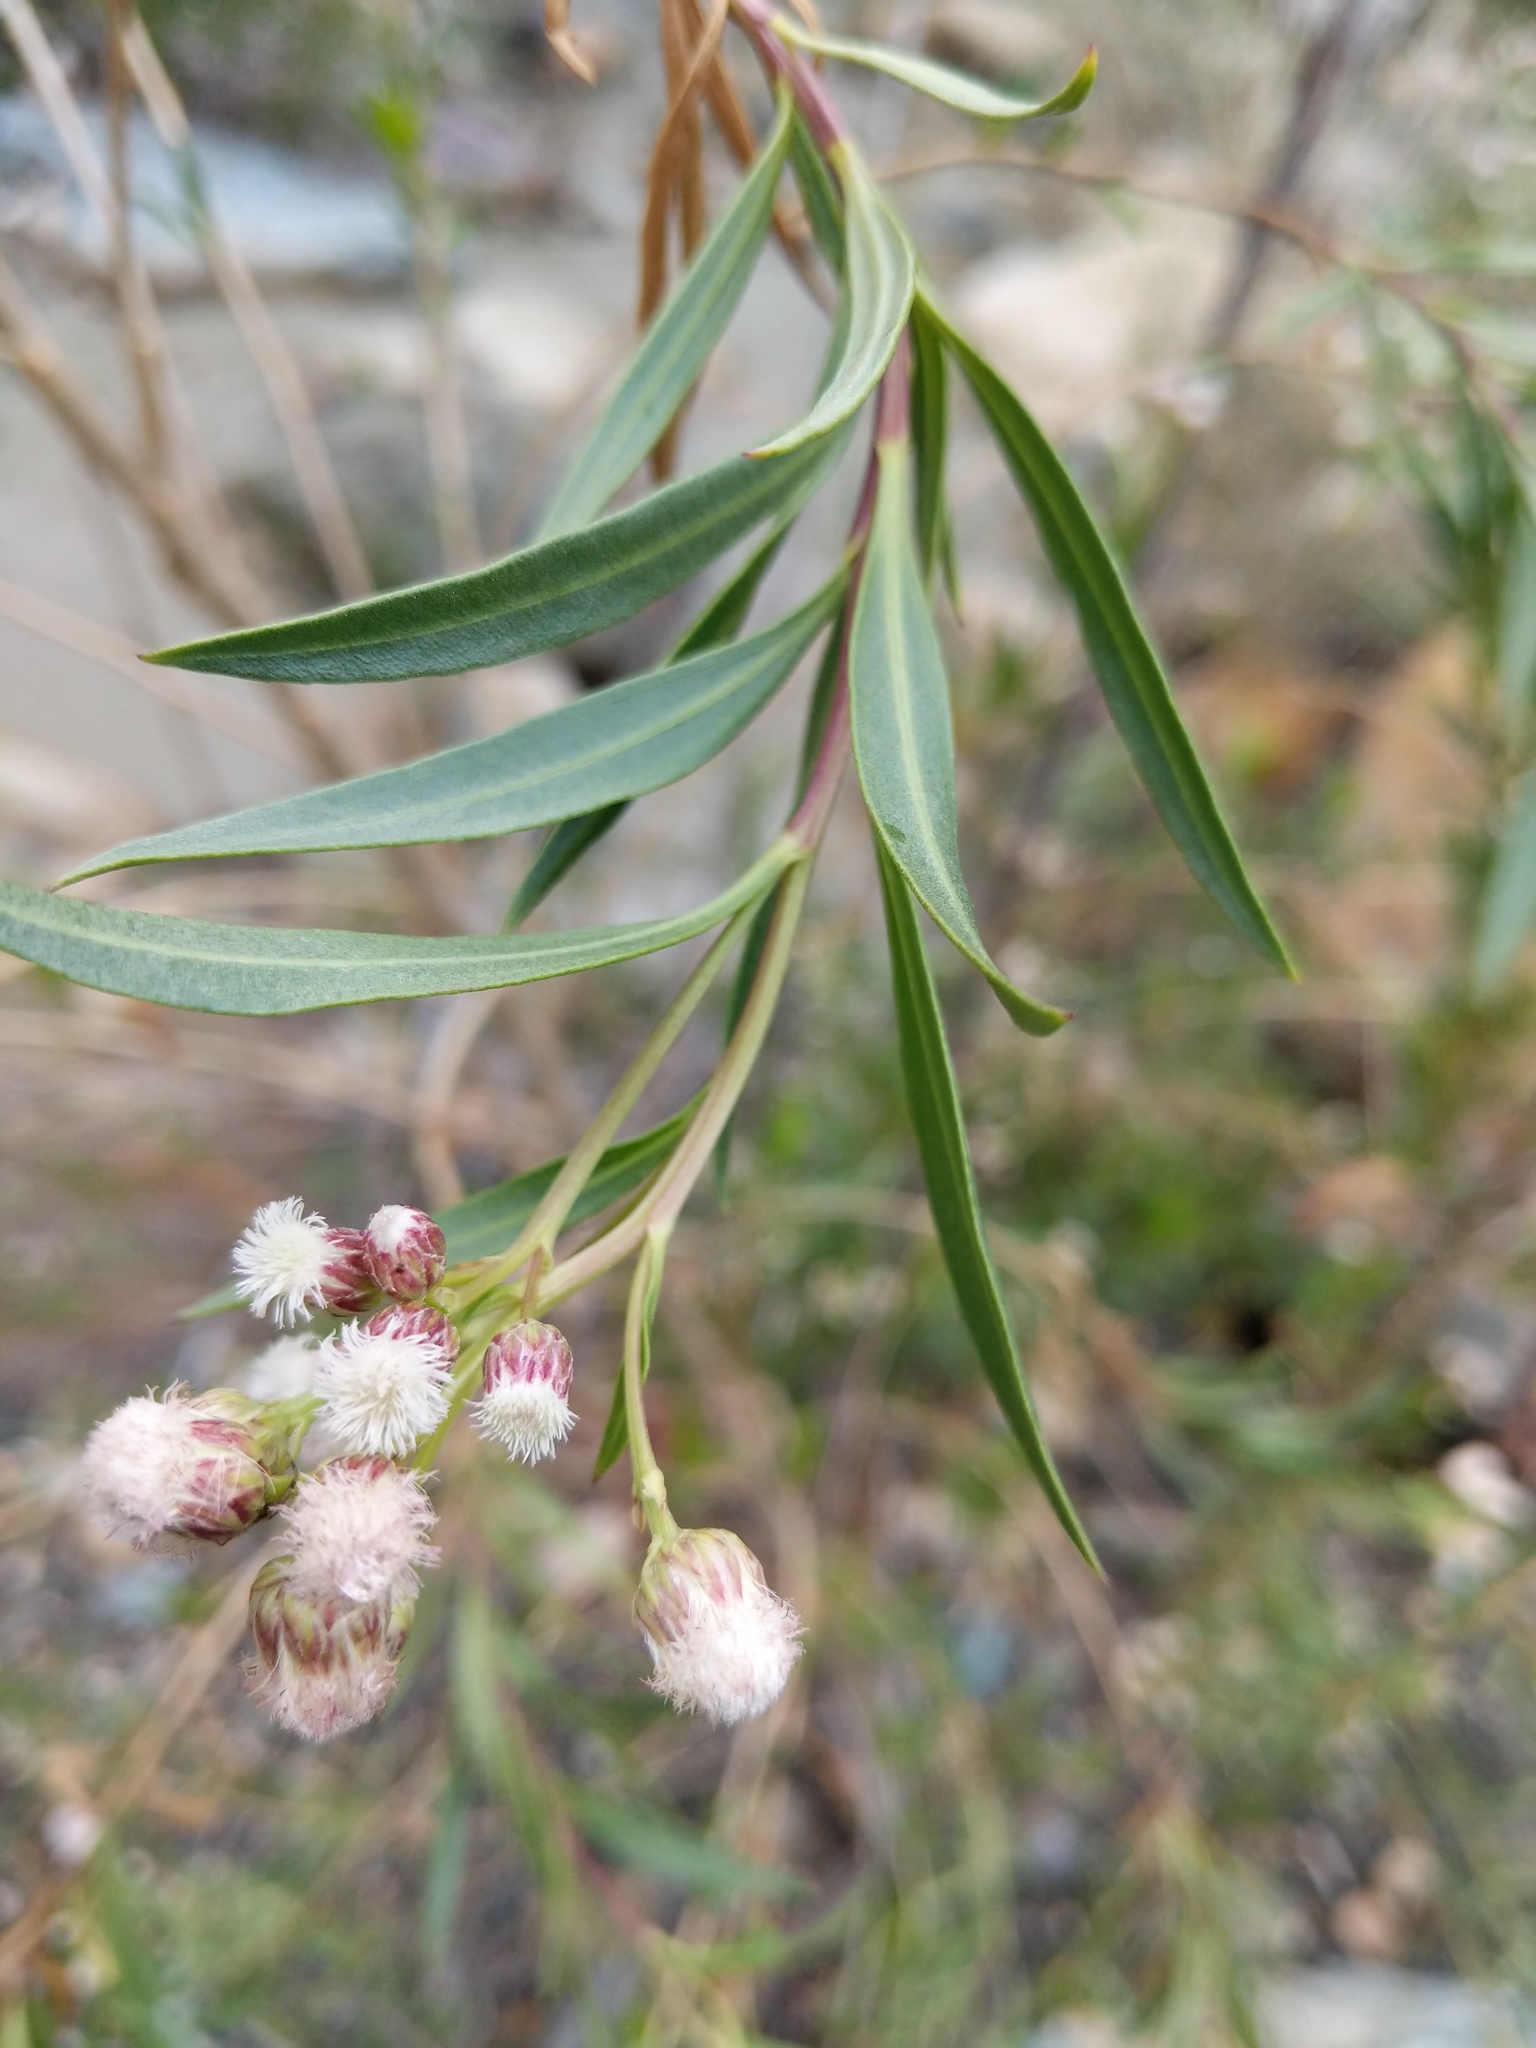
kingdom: Plantae
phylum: Tracheophyta
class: Magnoliopsida
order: Asterales
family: Asteraceae
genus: Baccharis
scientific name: Baccharis salicifolia
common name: Sticky baccharis
